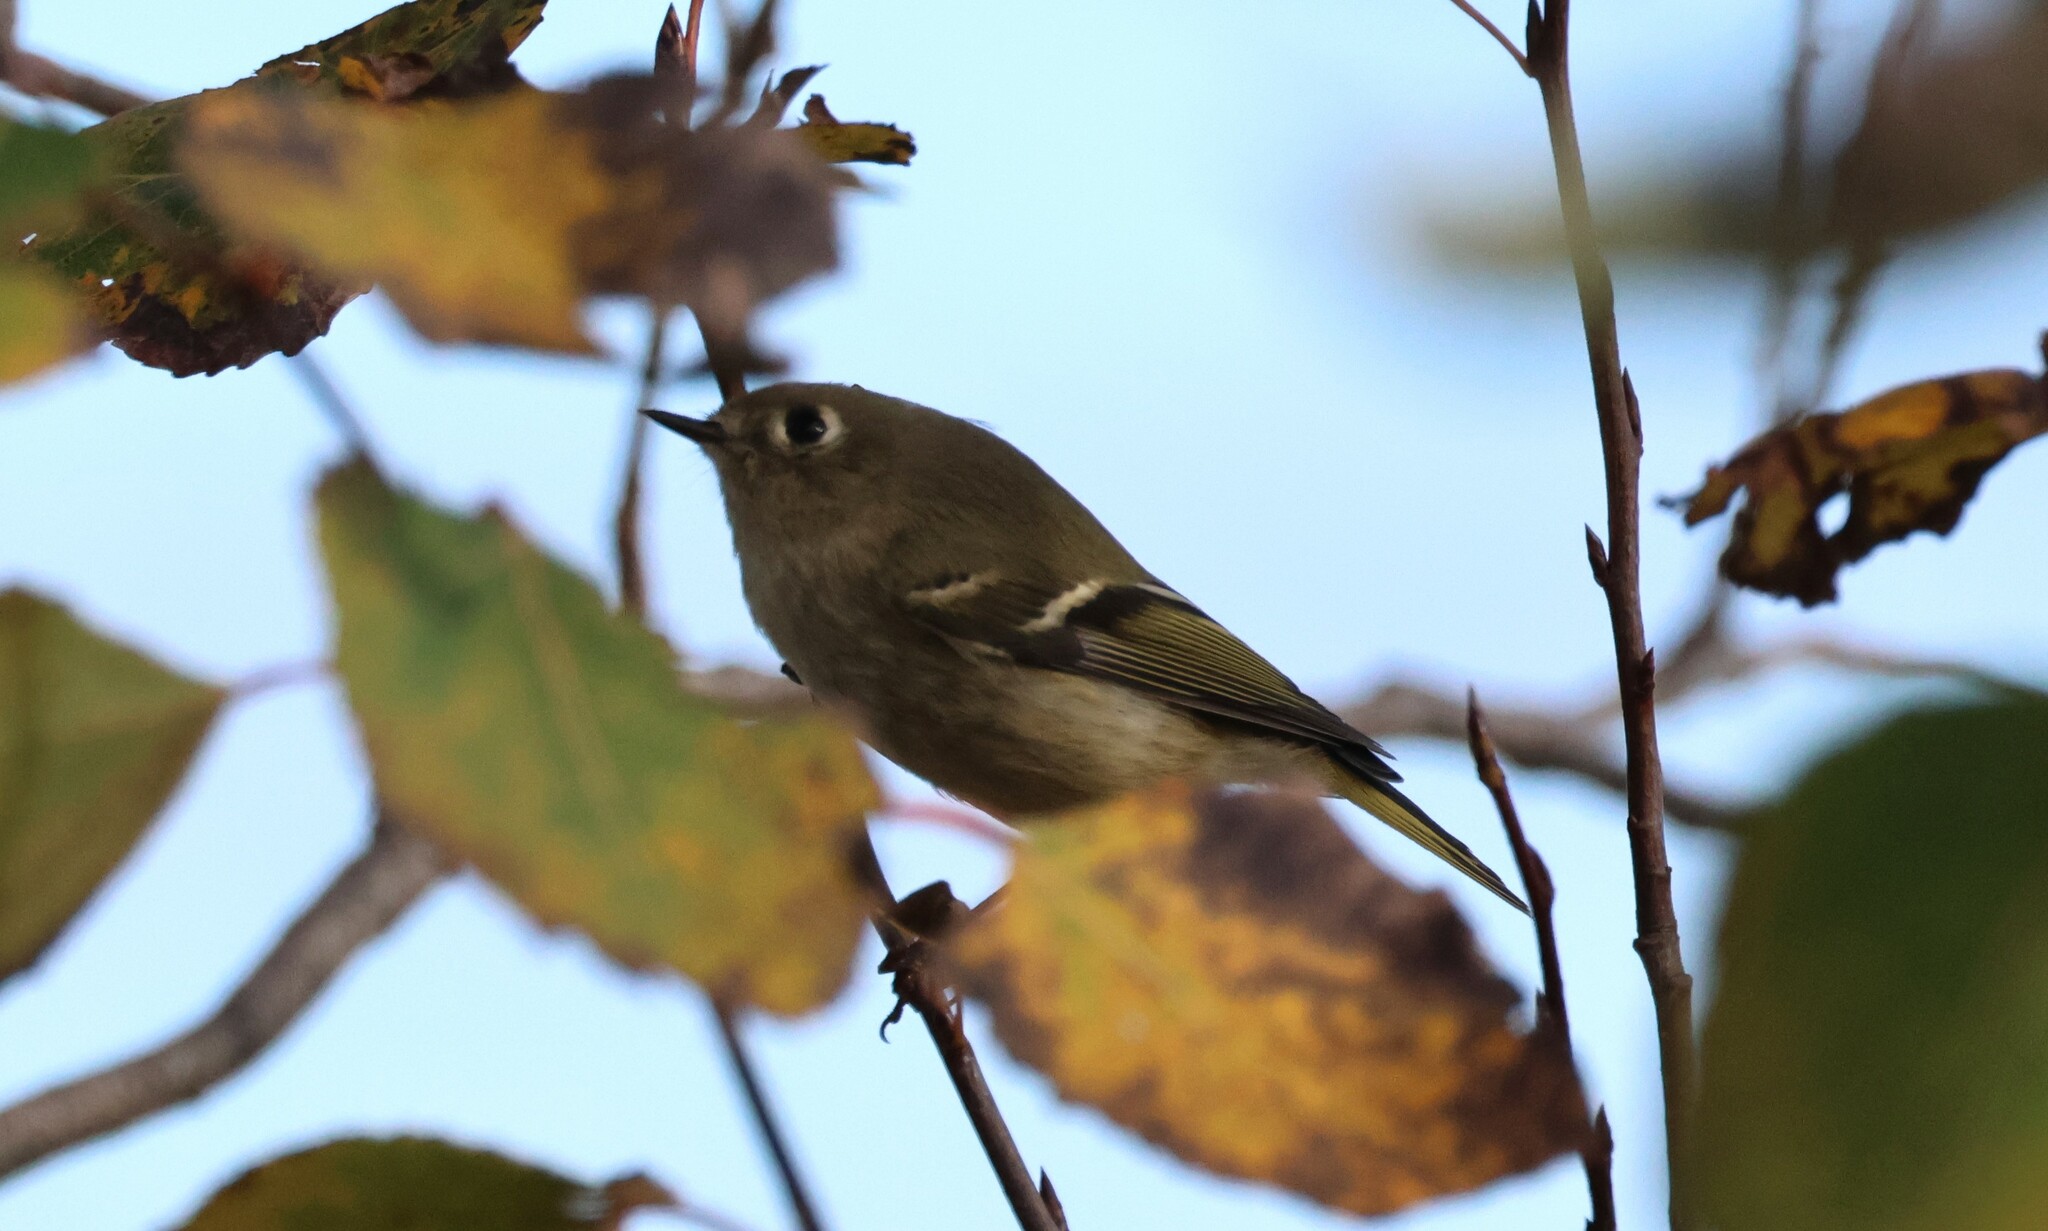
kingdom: Animalia
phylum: Chordata
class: Aves
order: Passeriformes
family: Regulidae
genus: Regulus
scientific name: Regulus calendula
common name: Ruby-crowned kinglet
